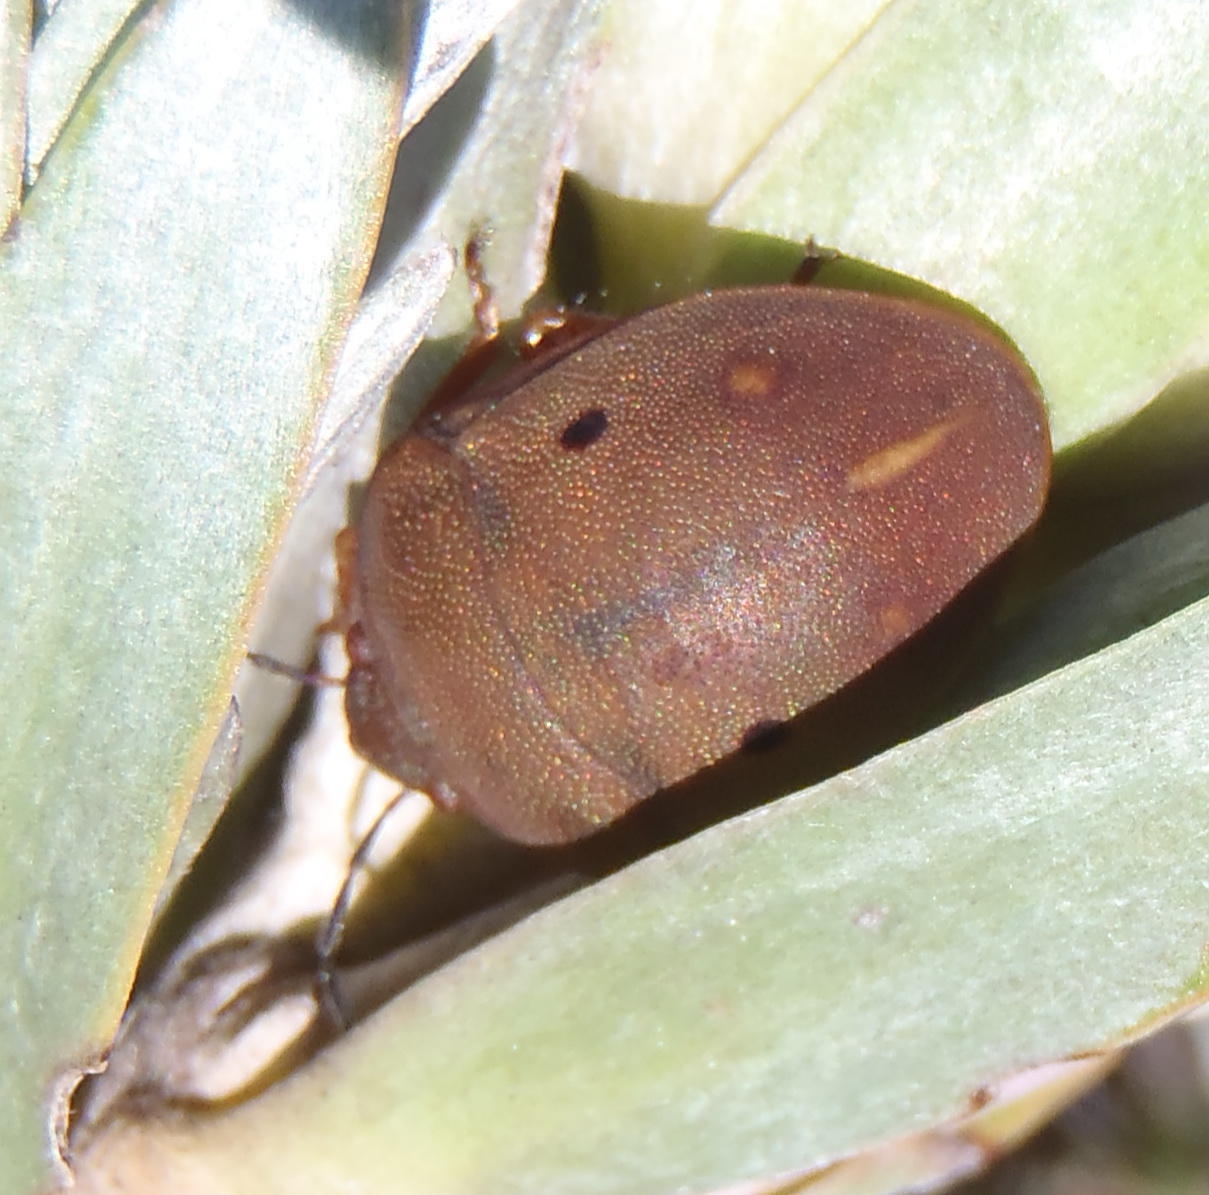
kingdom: Animalia
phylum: Arthropoda
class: Insecta
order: Hemiptera
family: Scutelleridae
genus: Solenosthedium
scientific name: Solenosthedium
